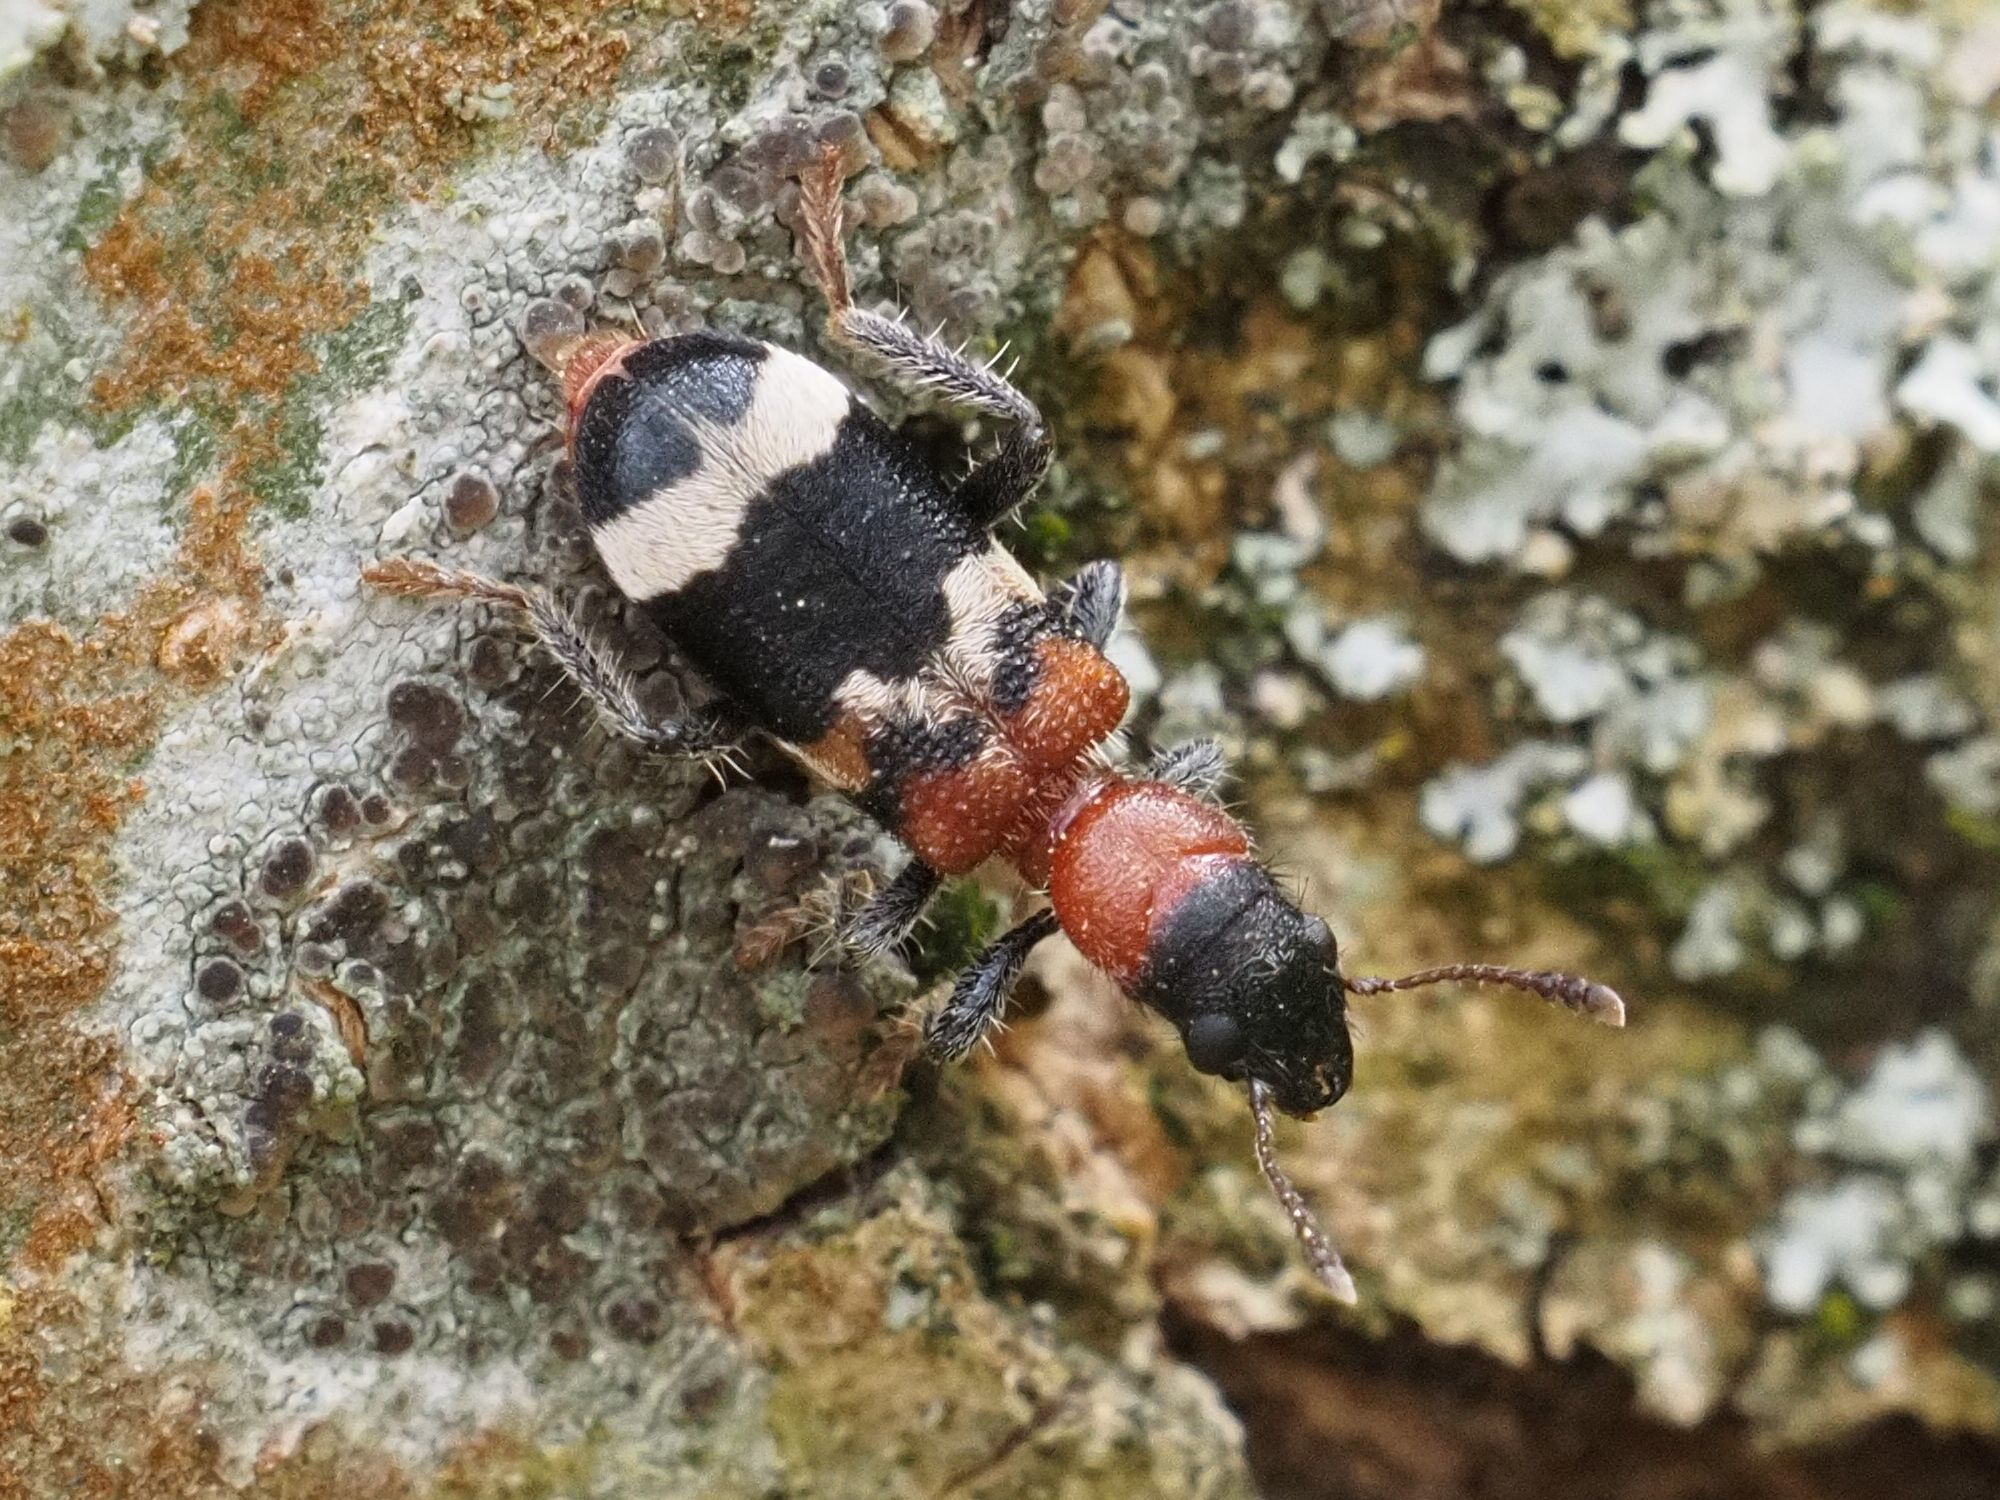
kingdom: Animalia
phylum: Arthropoda
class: Insecta
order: Coleoptera
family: Cleridae
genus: Thanasimus
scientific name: Thanasimus formicarius
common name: Ant beetle
